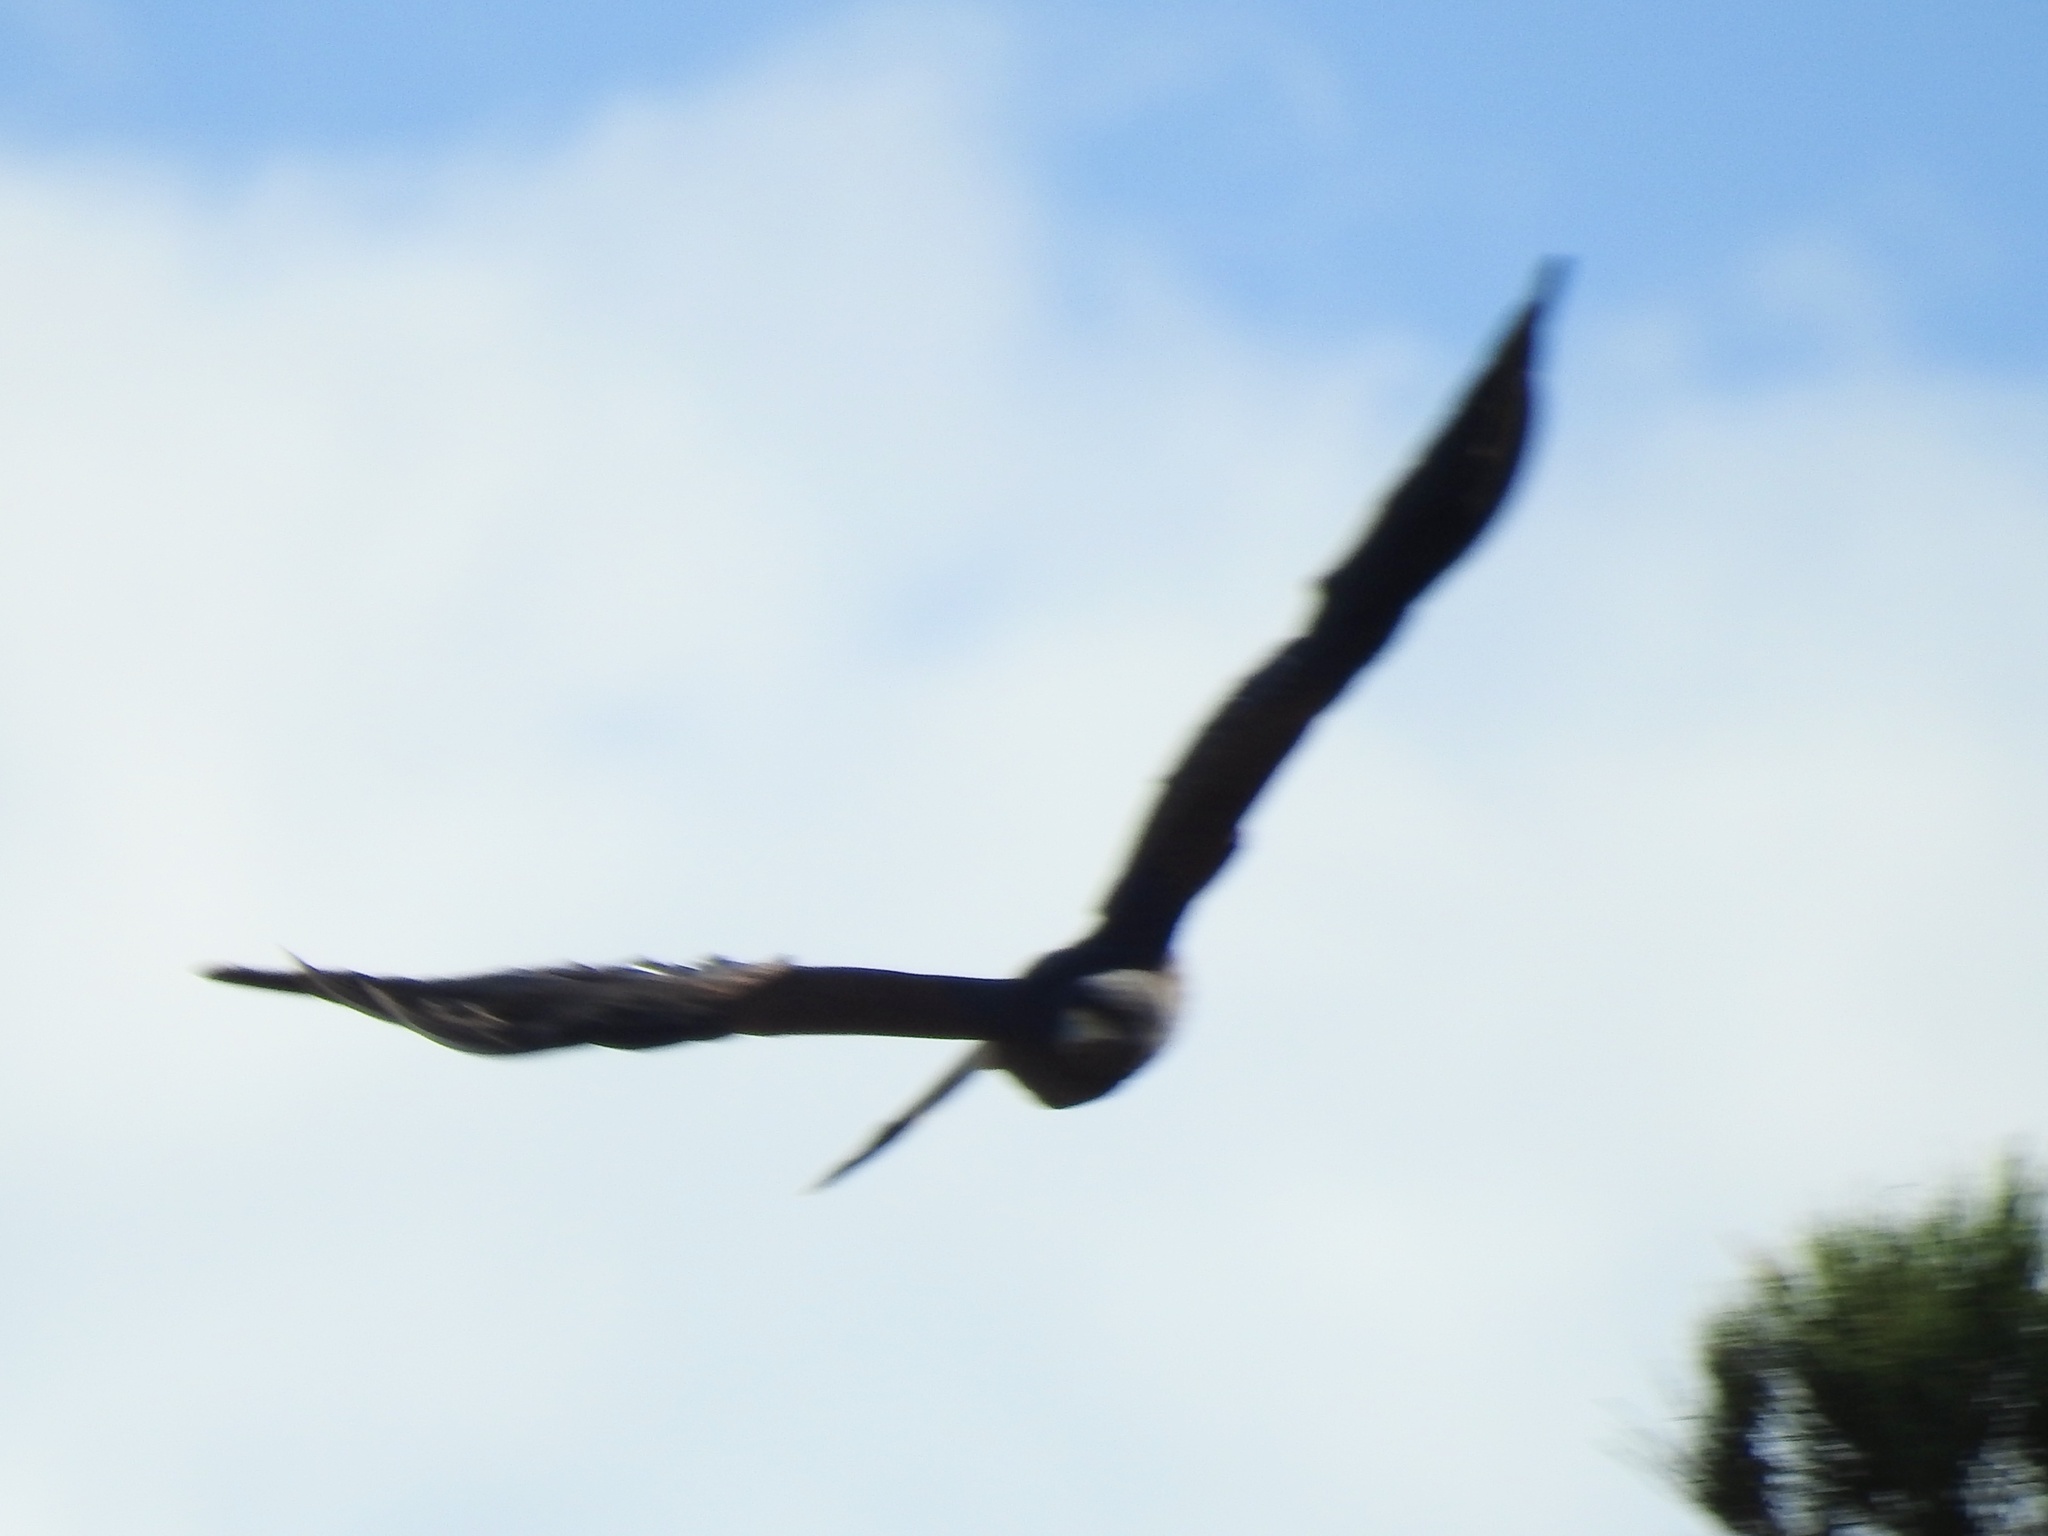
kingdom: Animalia
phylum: Chordata
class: Aves
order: Accipitriformes
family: Accipitridae
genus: Parabuteo
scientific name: Parabuteo unicinctus
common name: Harris's hawk
